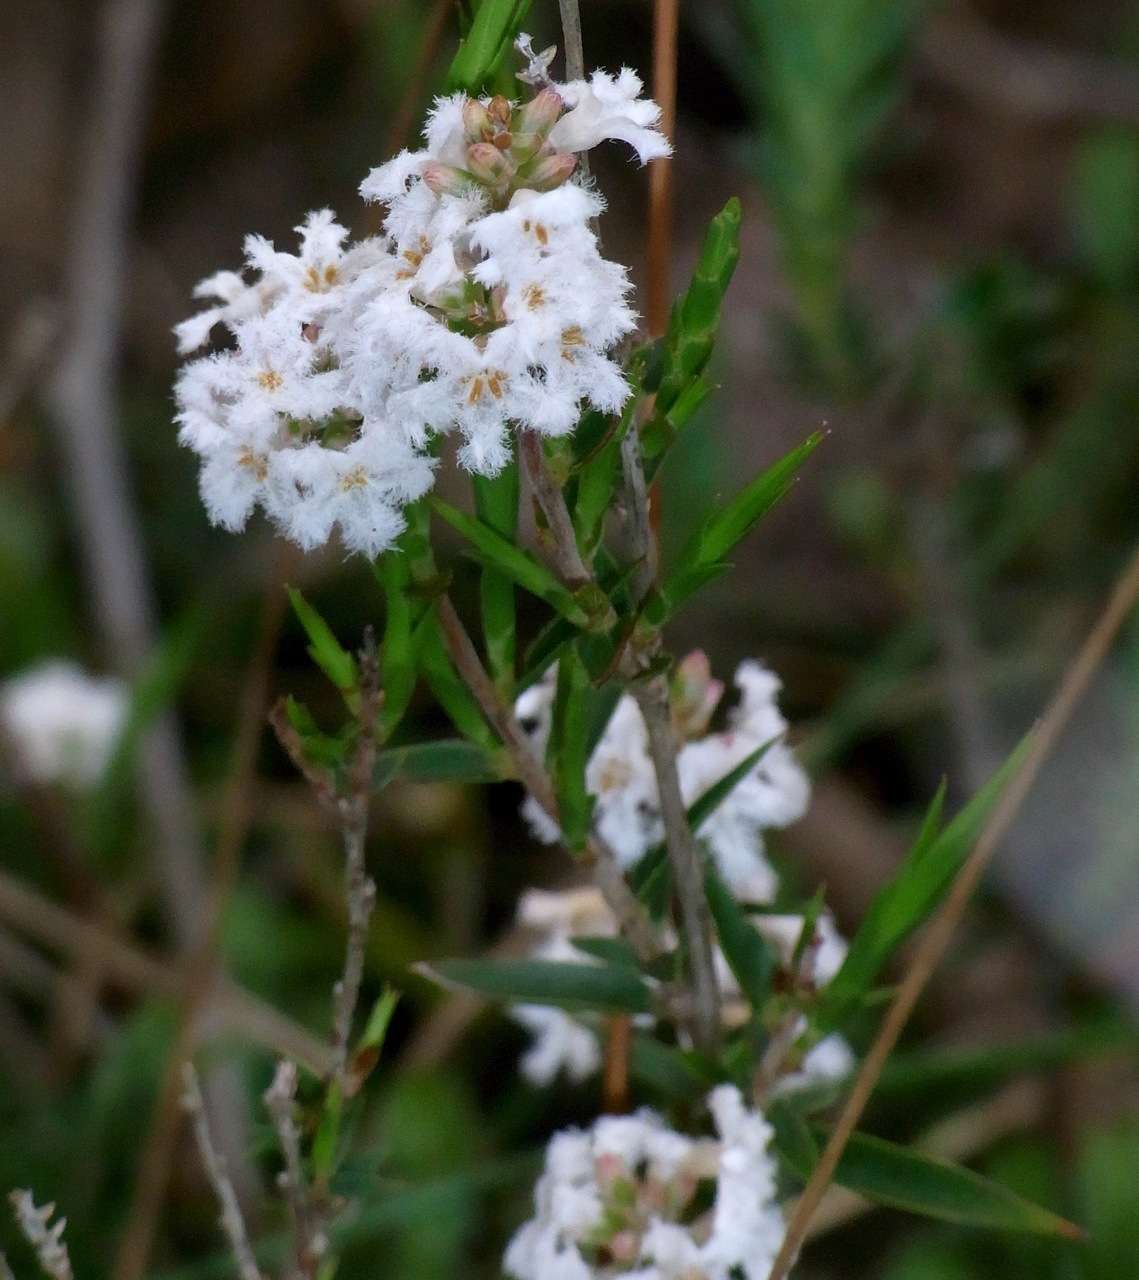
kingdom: Plantae
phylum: Tracheophyta
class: Magnoliopsida
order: Ericales
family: Ericaceae
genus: Leucopogon
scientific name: Leucopogon virgatus
